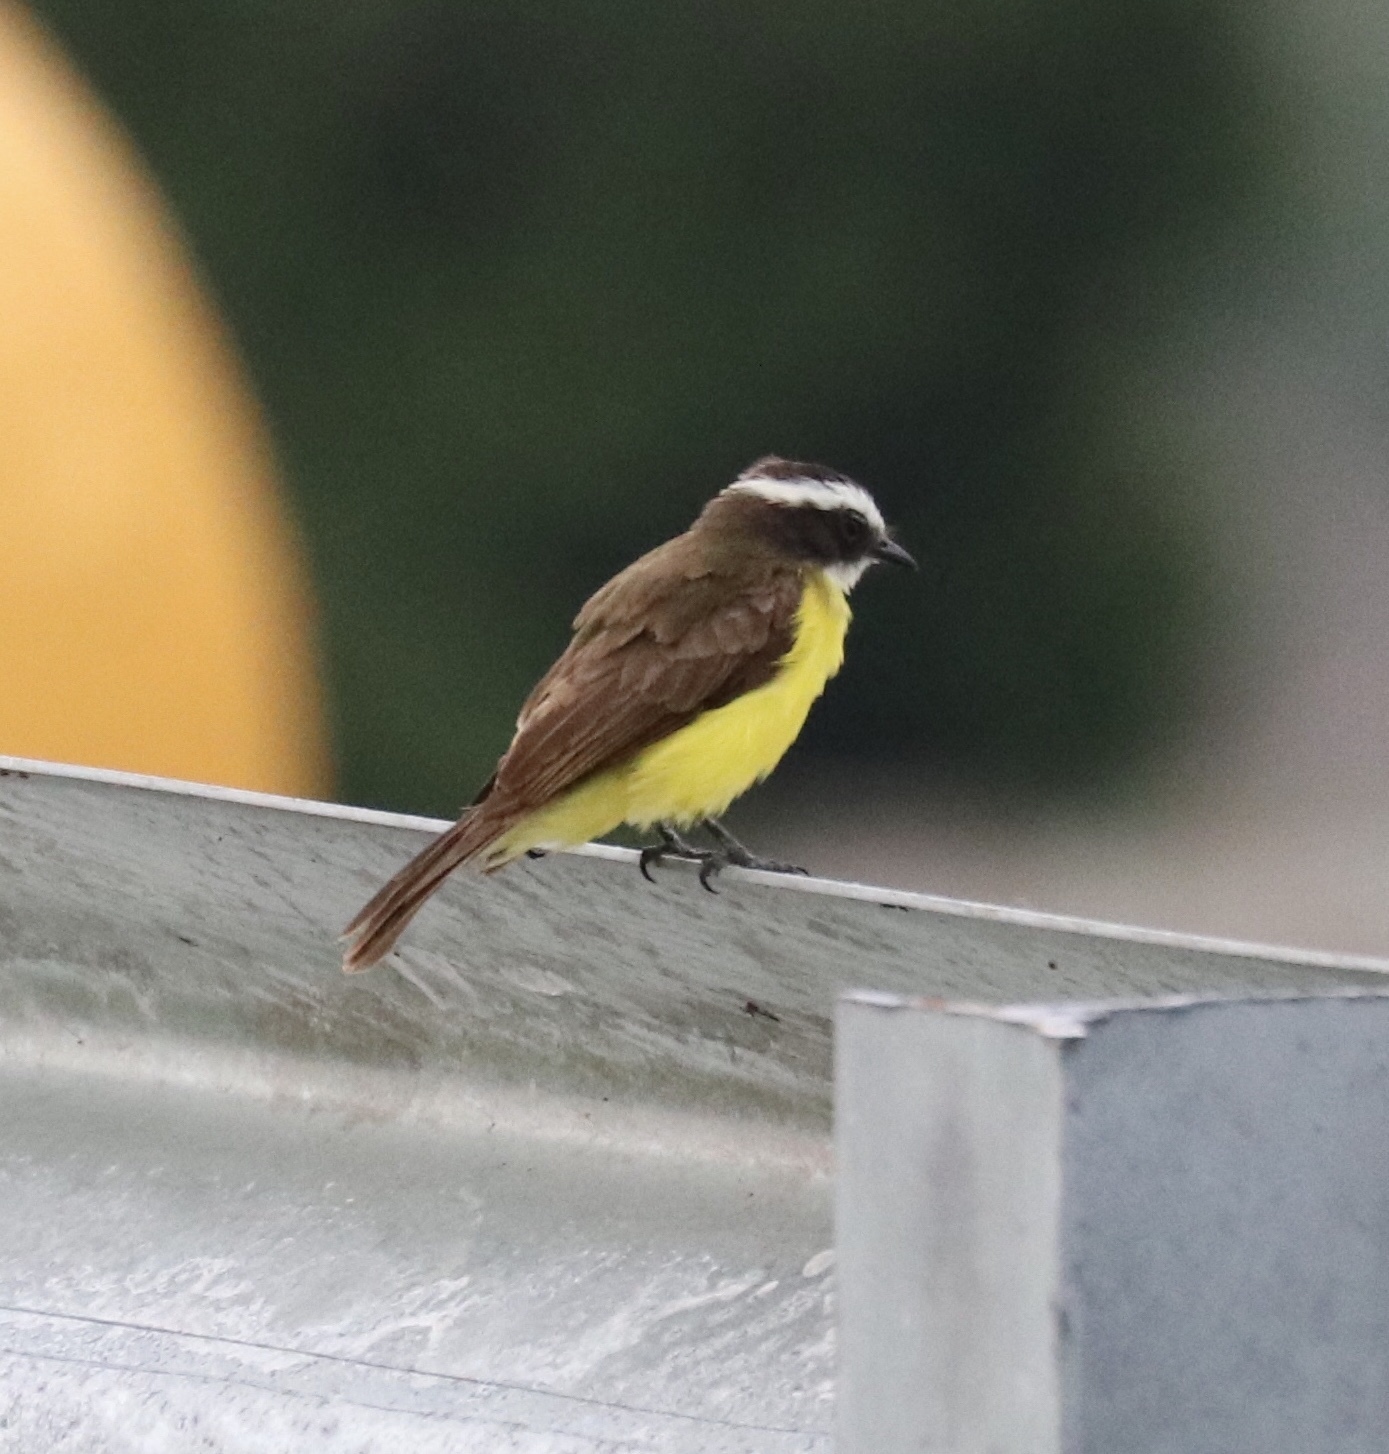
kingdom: Animalia
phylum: Chordata
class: Aves
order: Passeriformes
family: Tyrannidae
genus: Myiozetetes
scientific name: Myiozetetes cayanensis
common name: Rusty-margined flycatcher
